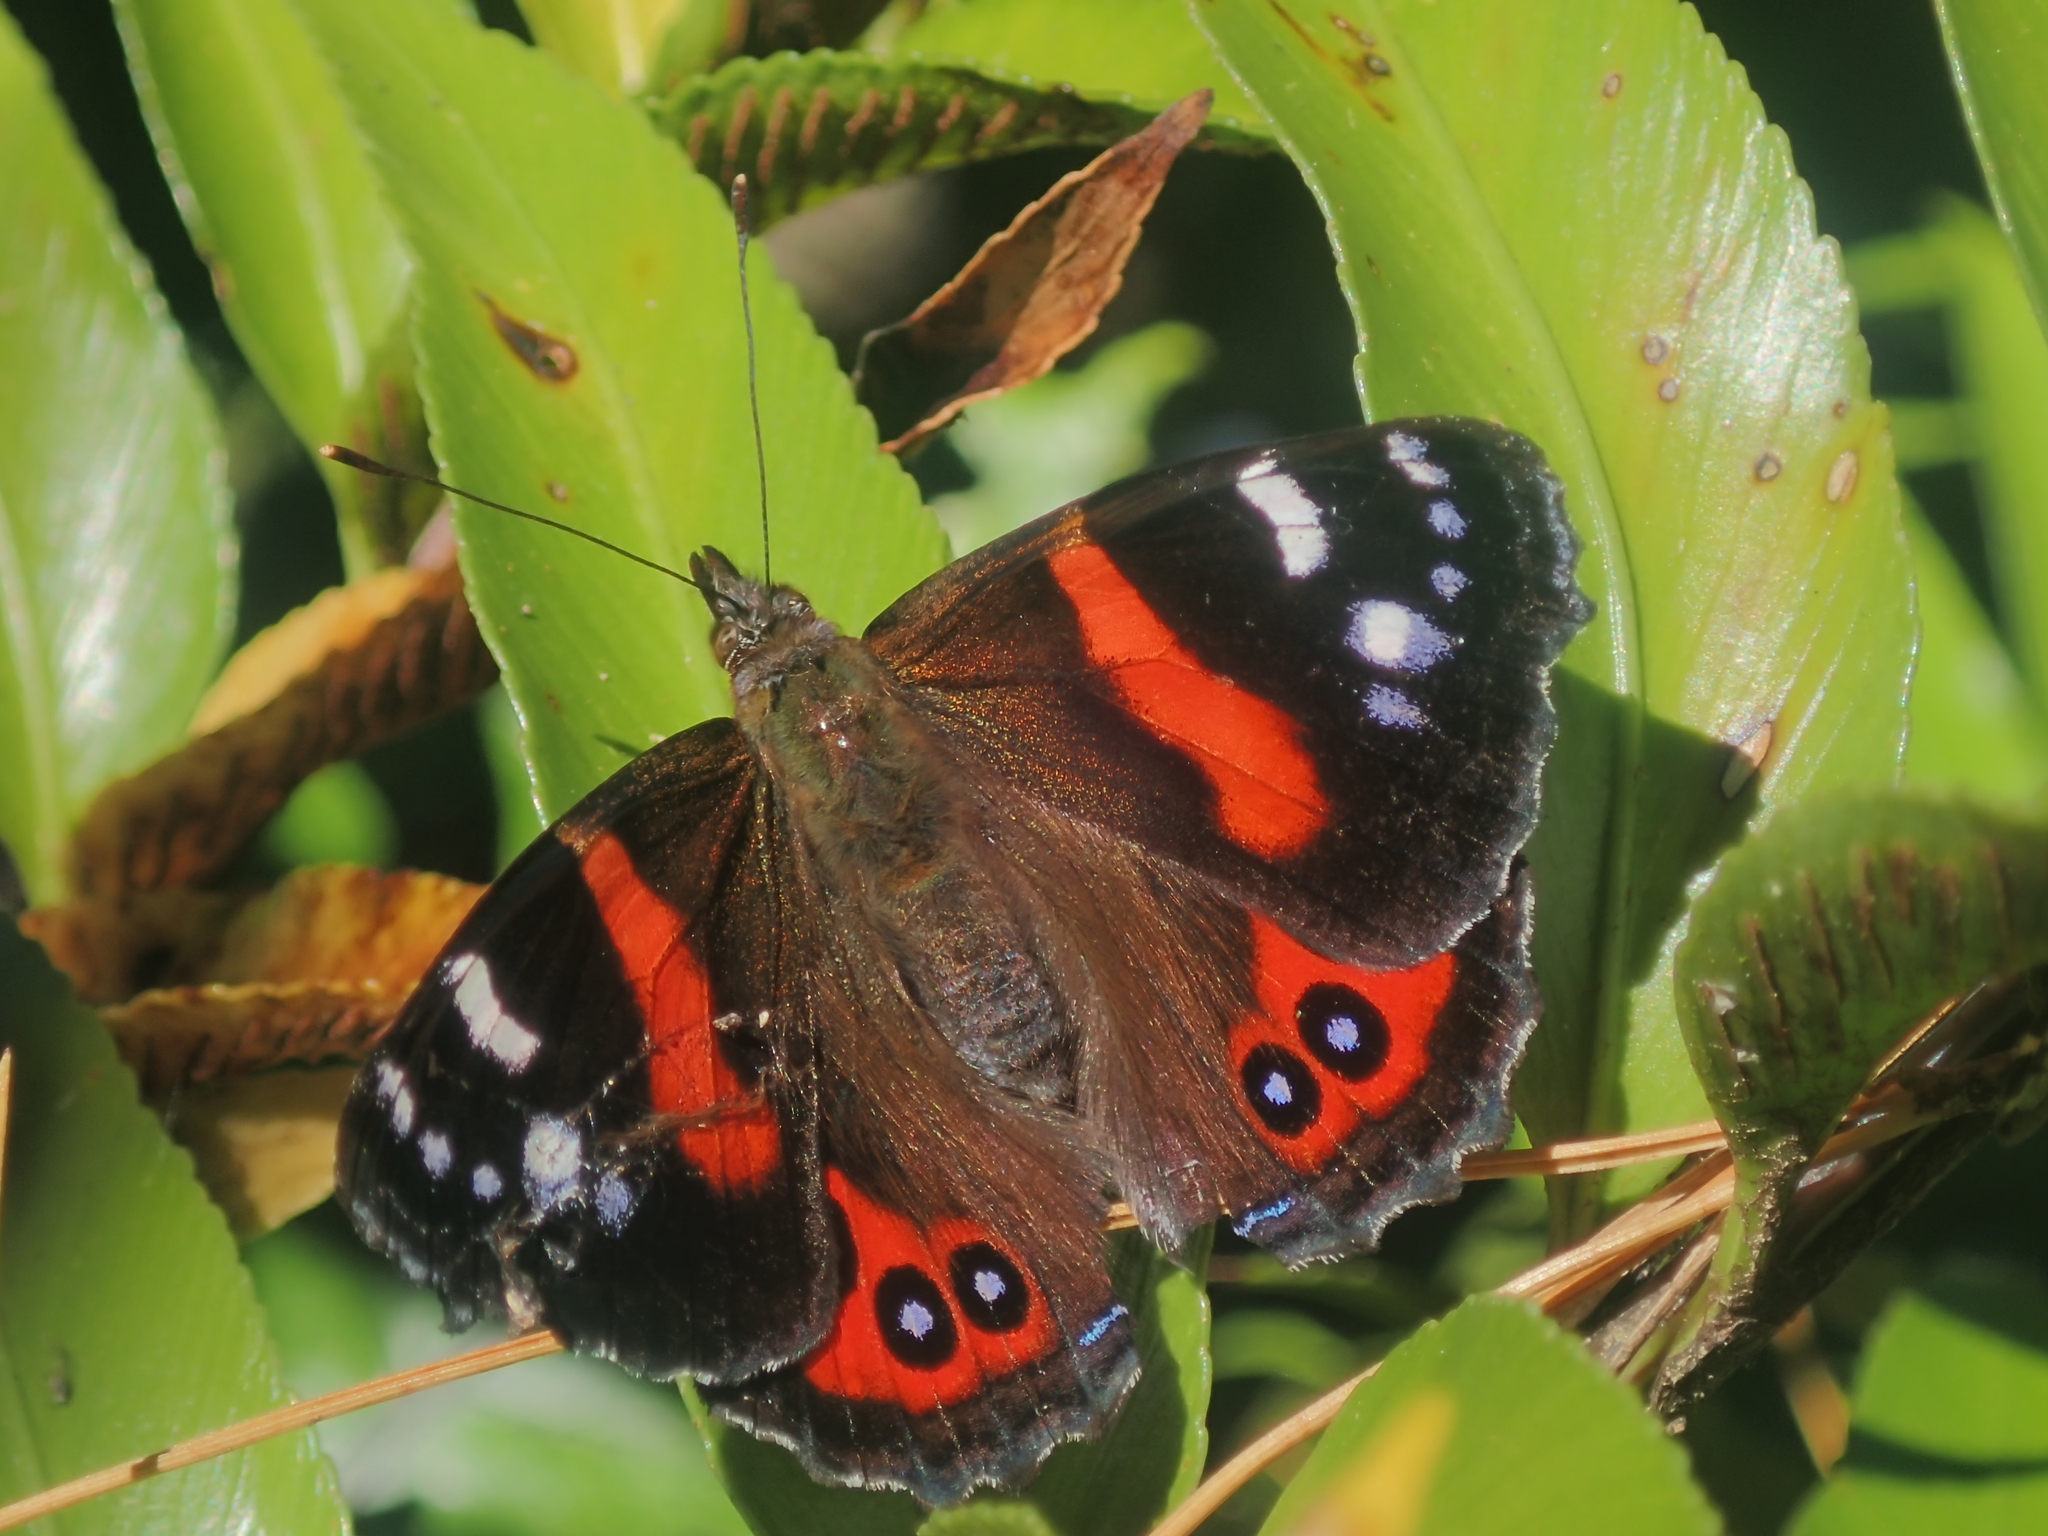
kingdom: Animalia
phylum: Arthropoda
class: Insecta
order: Lepidoptera
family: Nymphalidae
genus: Vanessa
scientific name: Vanessa gonerilla
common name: New zealand red admiral
